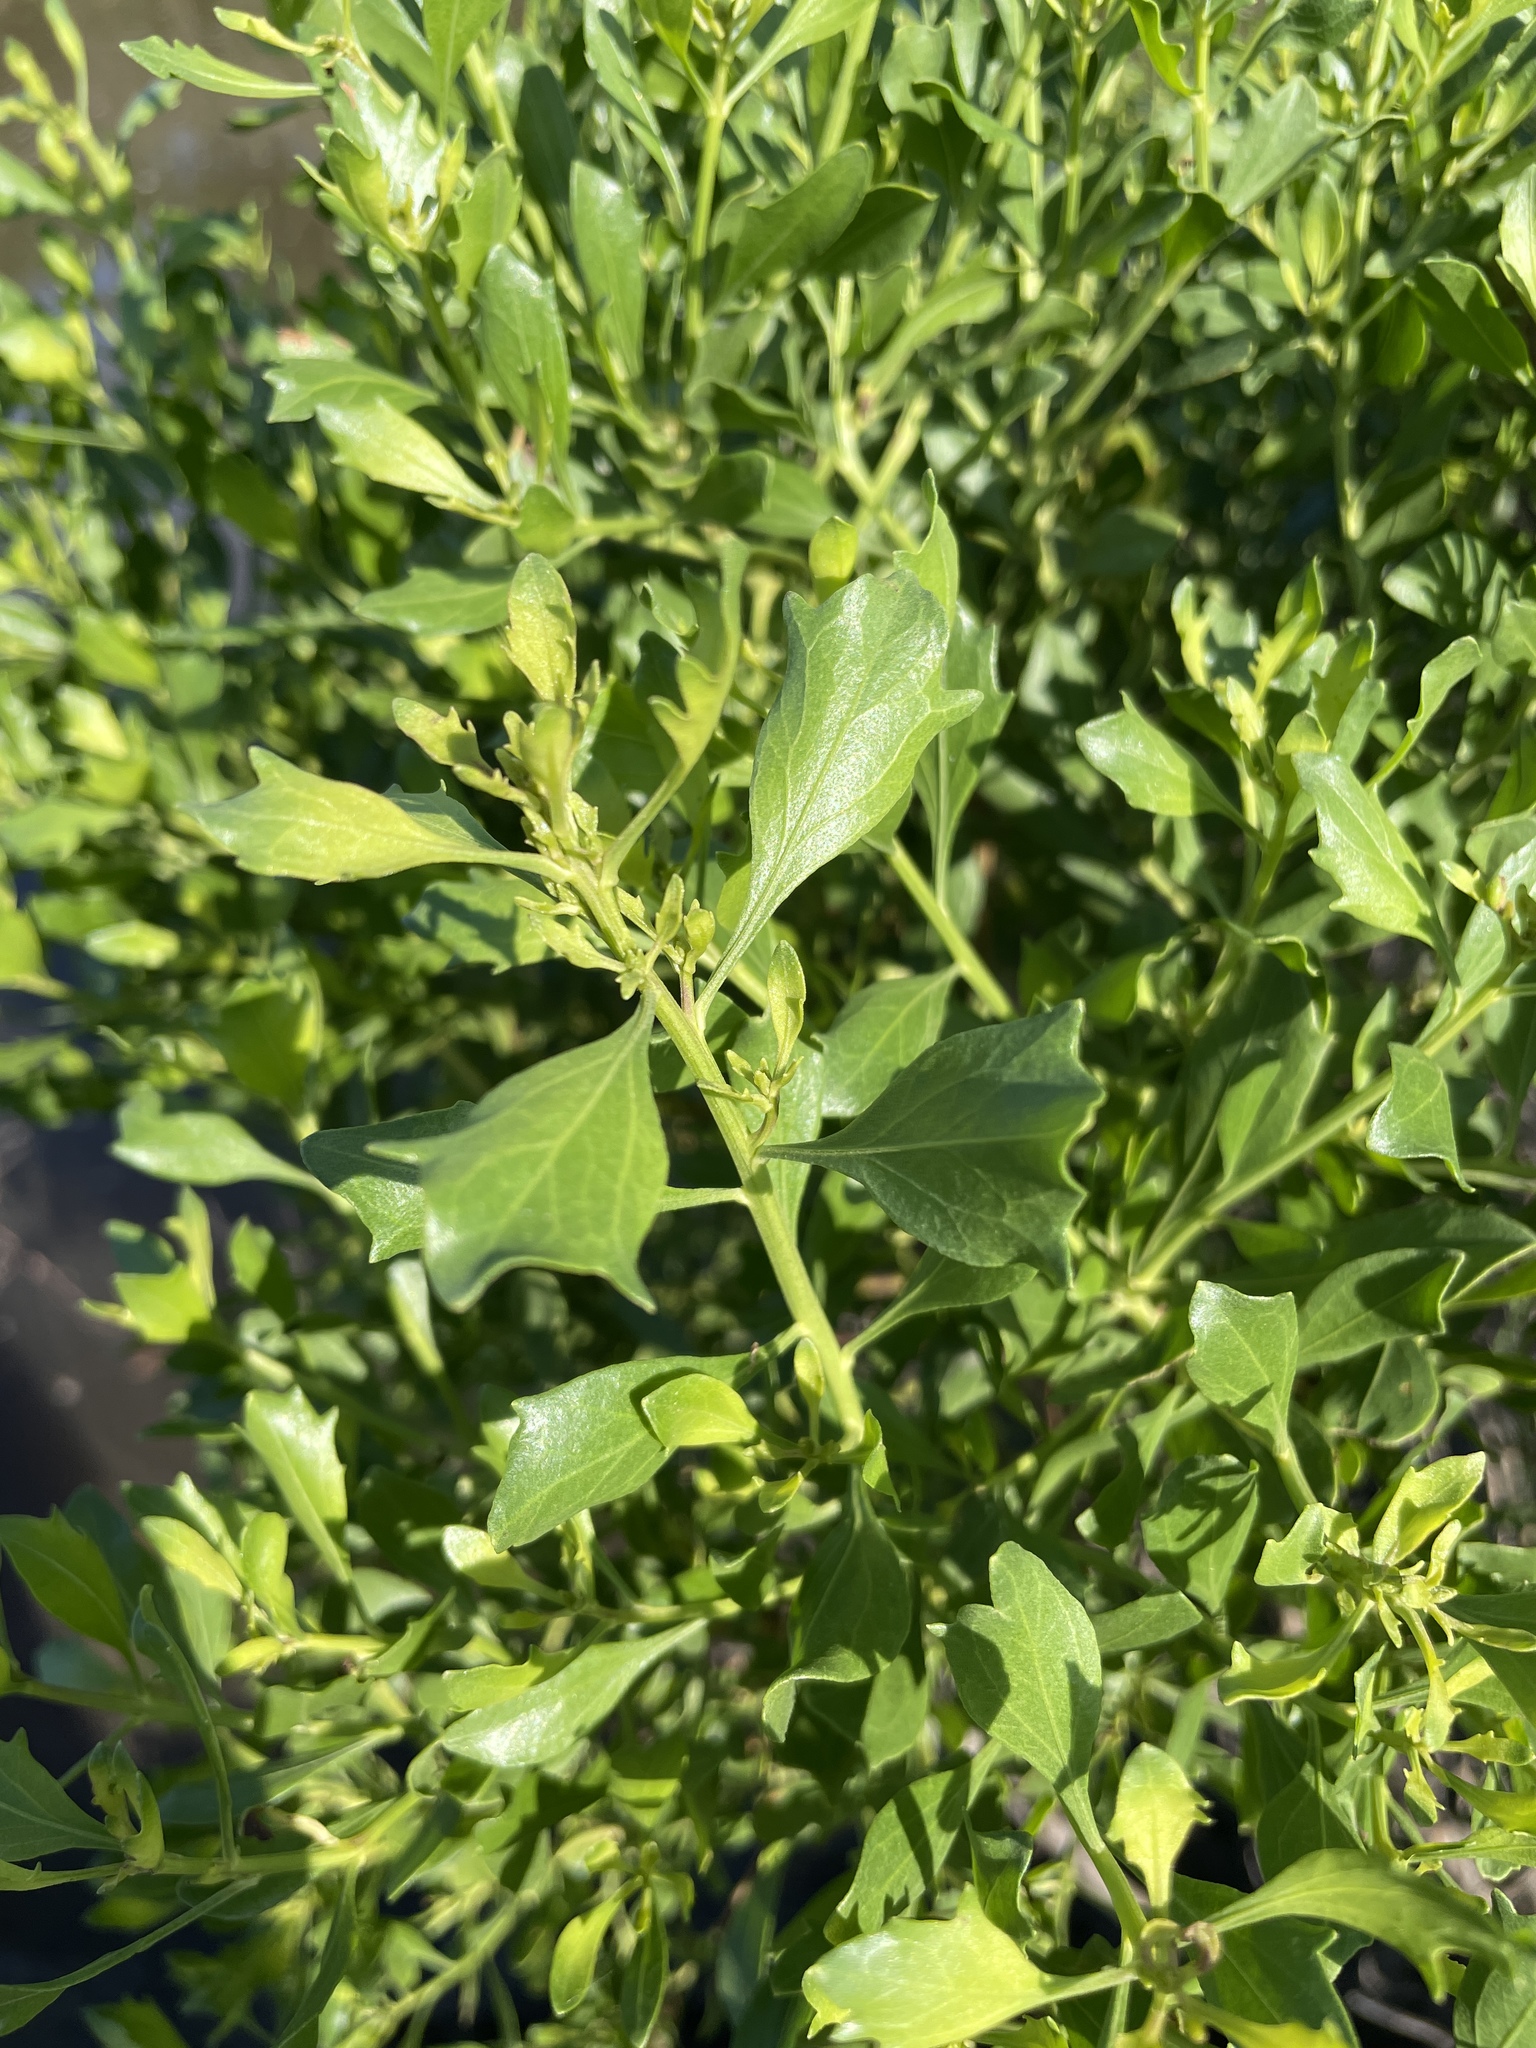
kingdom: Plantae
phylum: Tracheophyta
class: Magnoliopsida
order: Asterales
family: Asteraceae
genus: Baccharis
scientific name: Baccharis halimifolia
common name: Eastern baccharis
